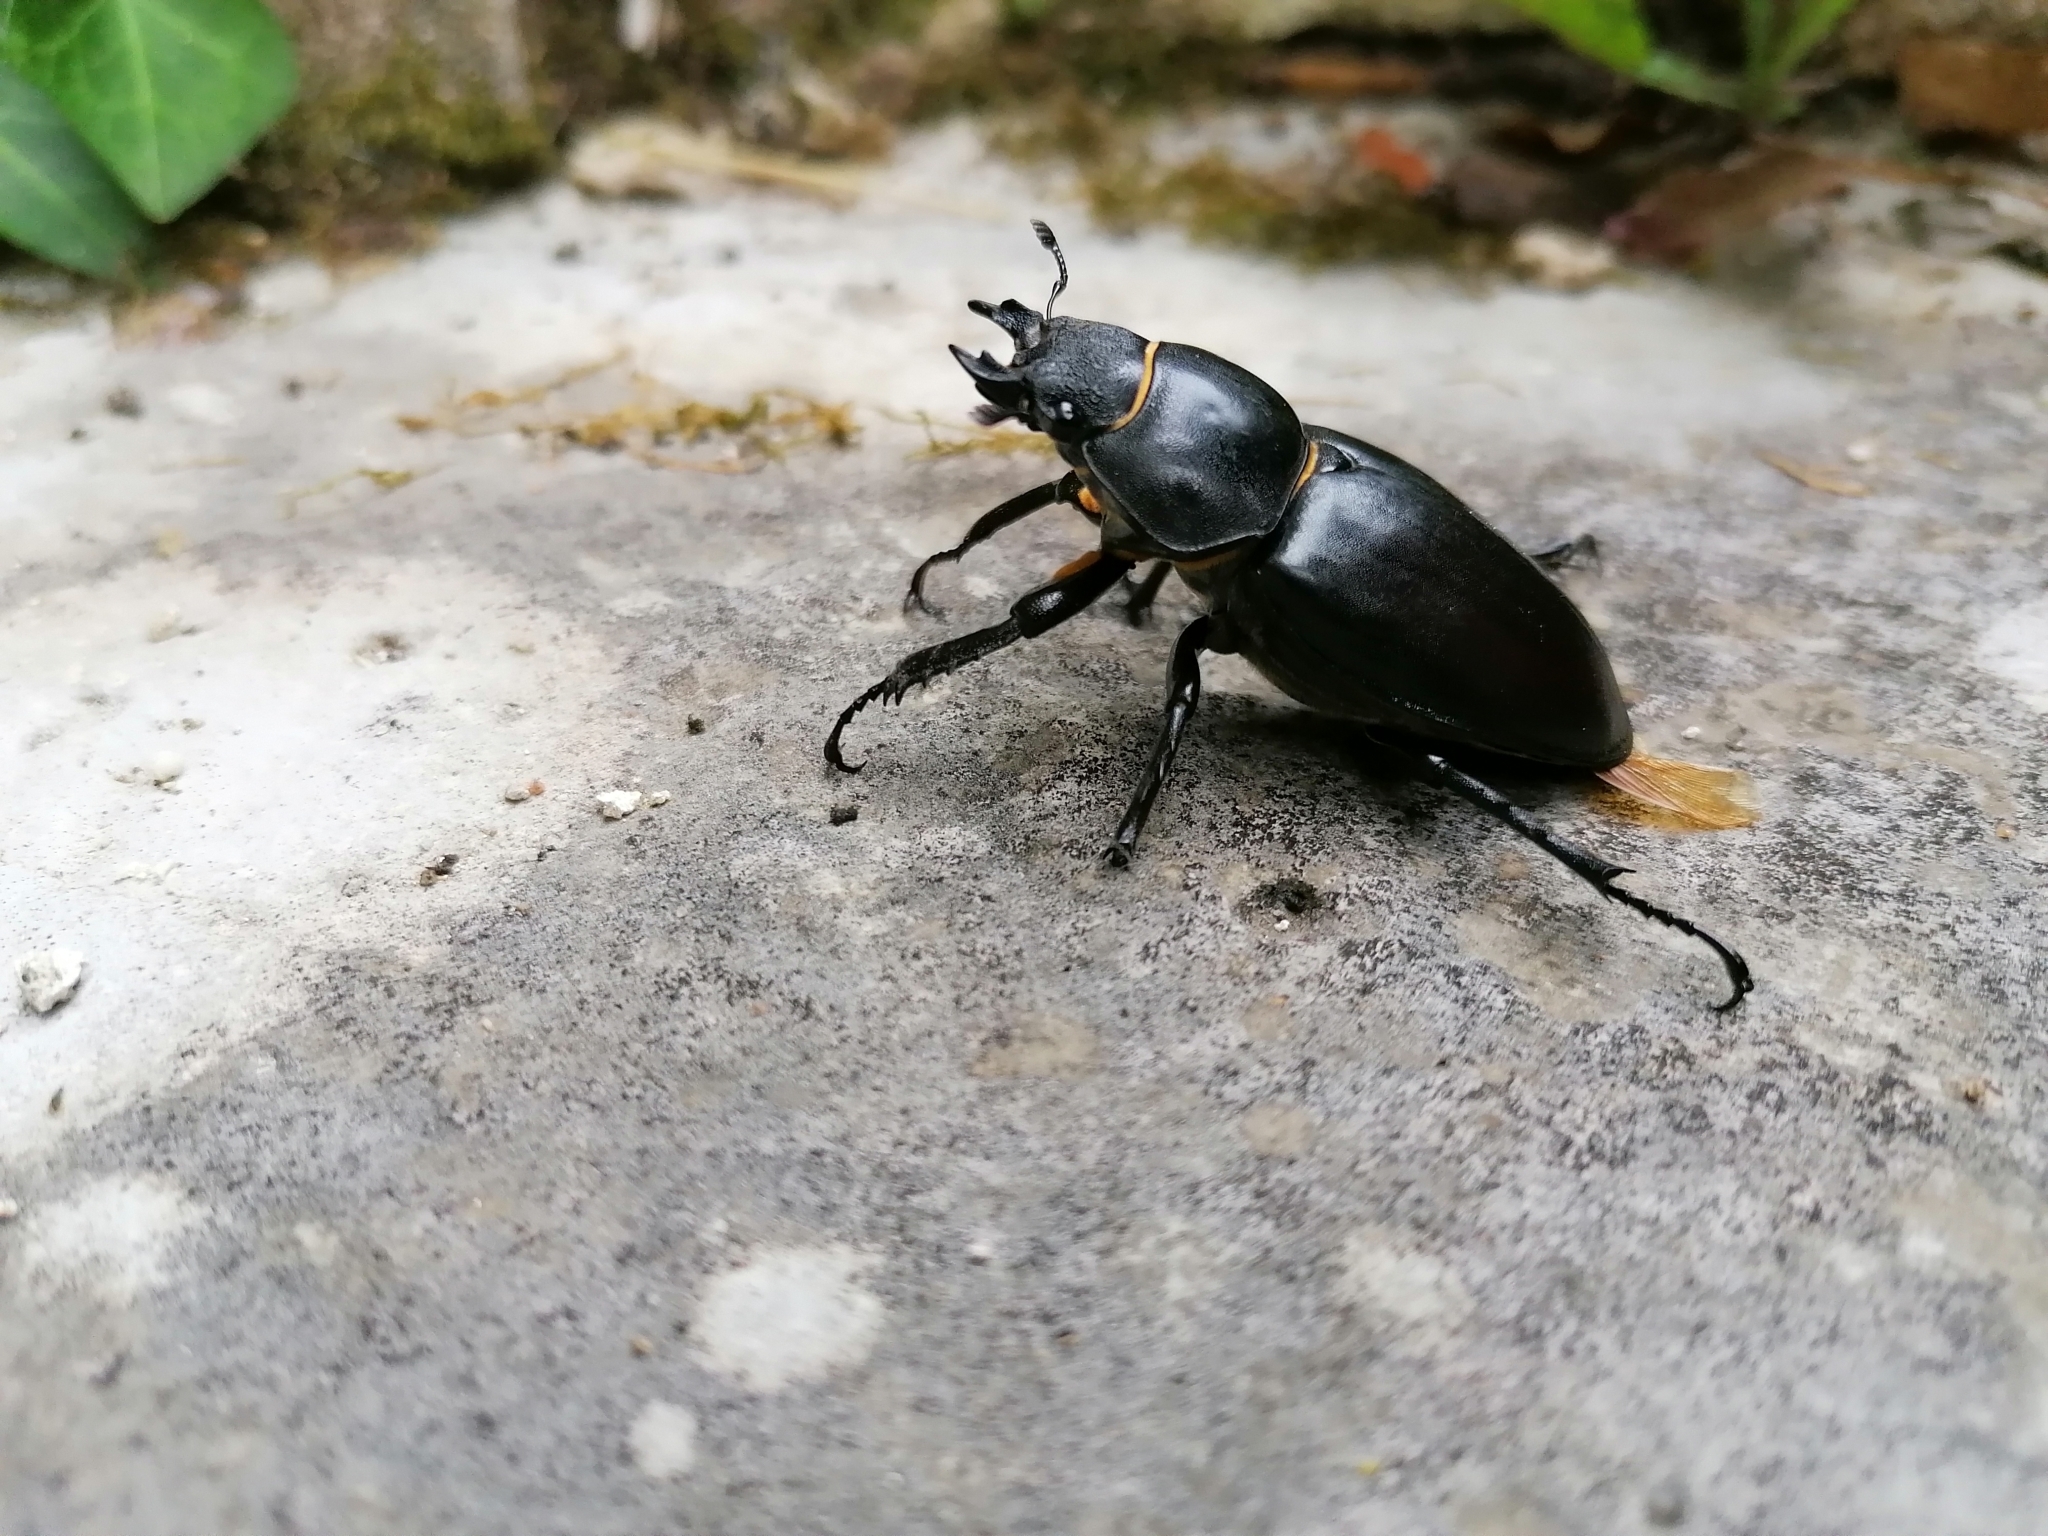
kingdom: Animalia
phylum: Arthropoda
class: Insecta
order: Coleoptera
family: Lucanidae
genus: Lucanus
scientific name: Lucanus cervus
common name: Stag beetle
